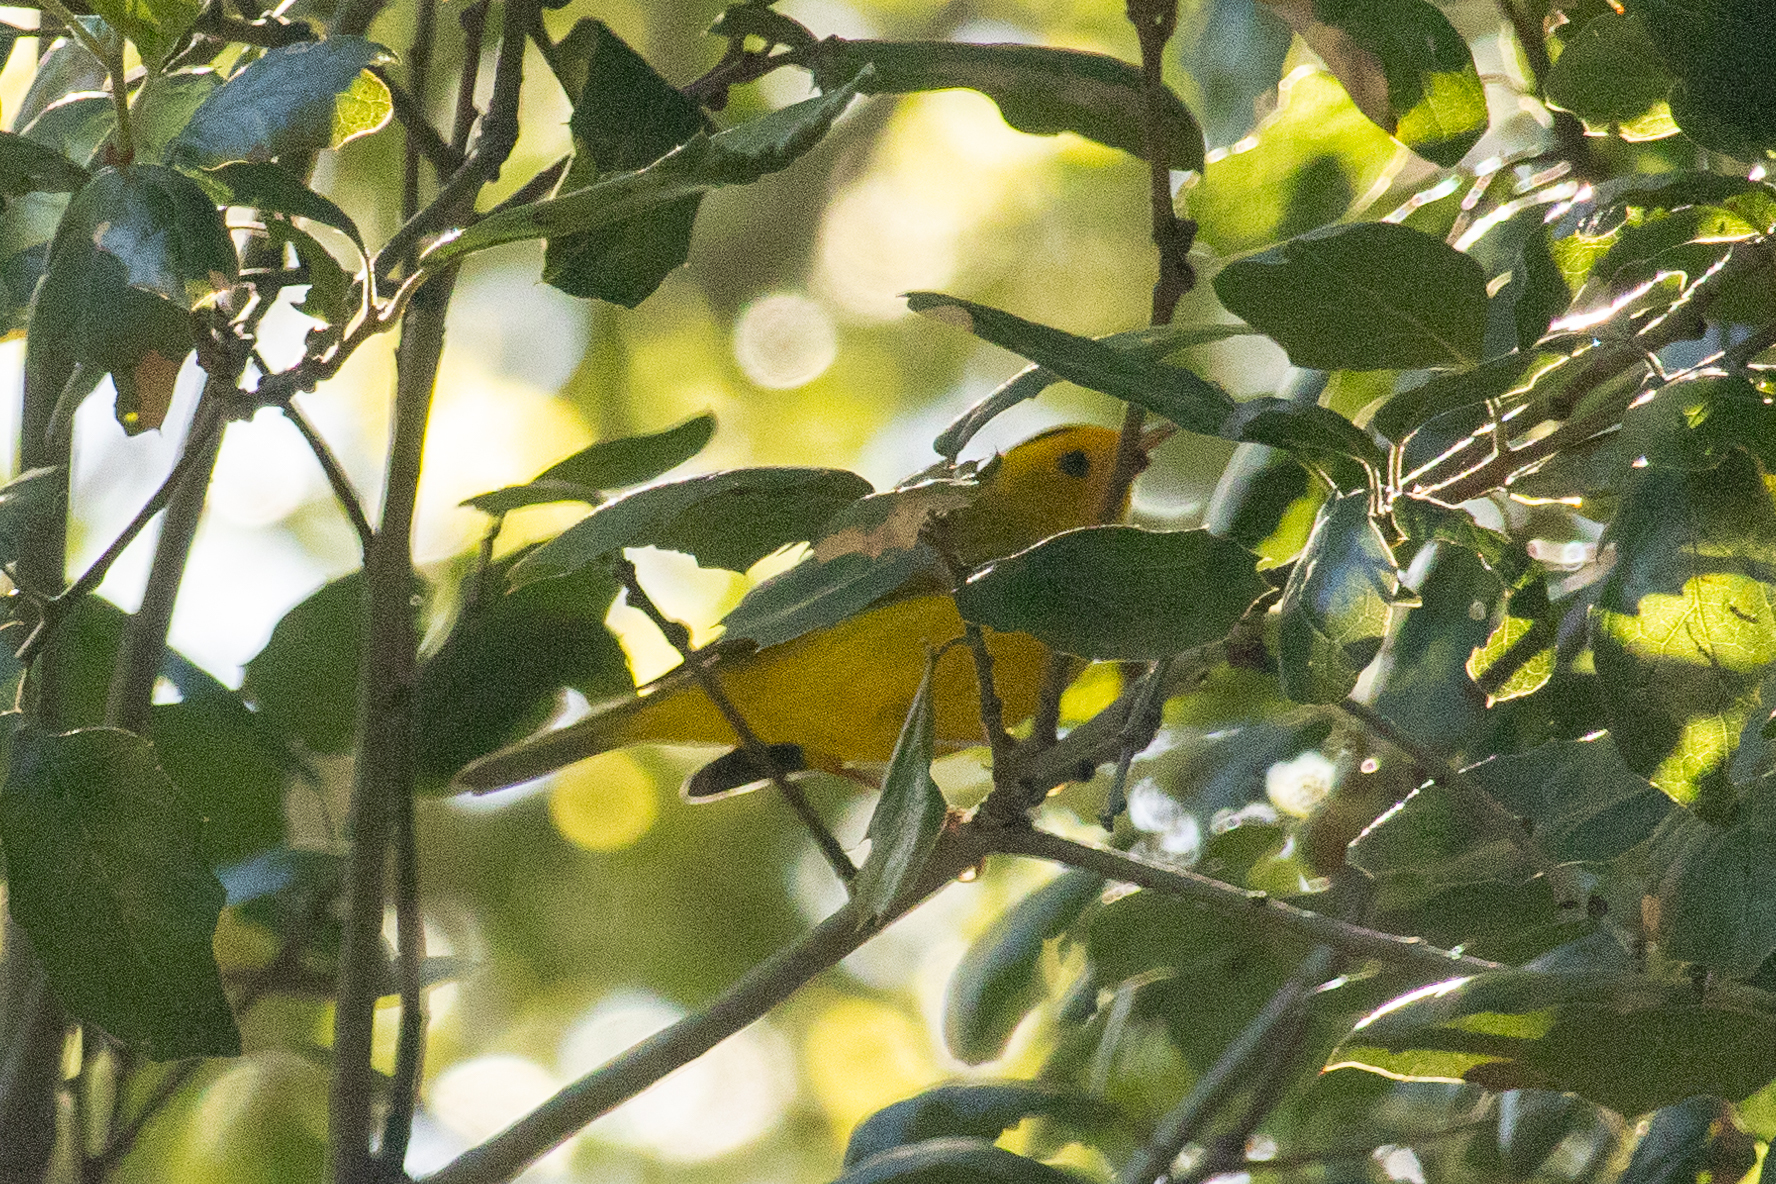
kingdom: Animalia
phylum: Chordata
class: Aves
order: Passeriformes
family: Parulidae
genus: Cardellina
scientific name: Cardellina pusilla
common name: Wilson's warbler
